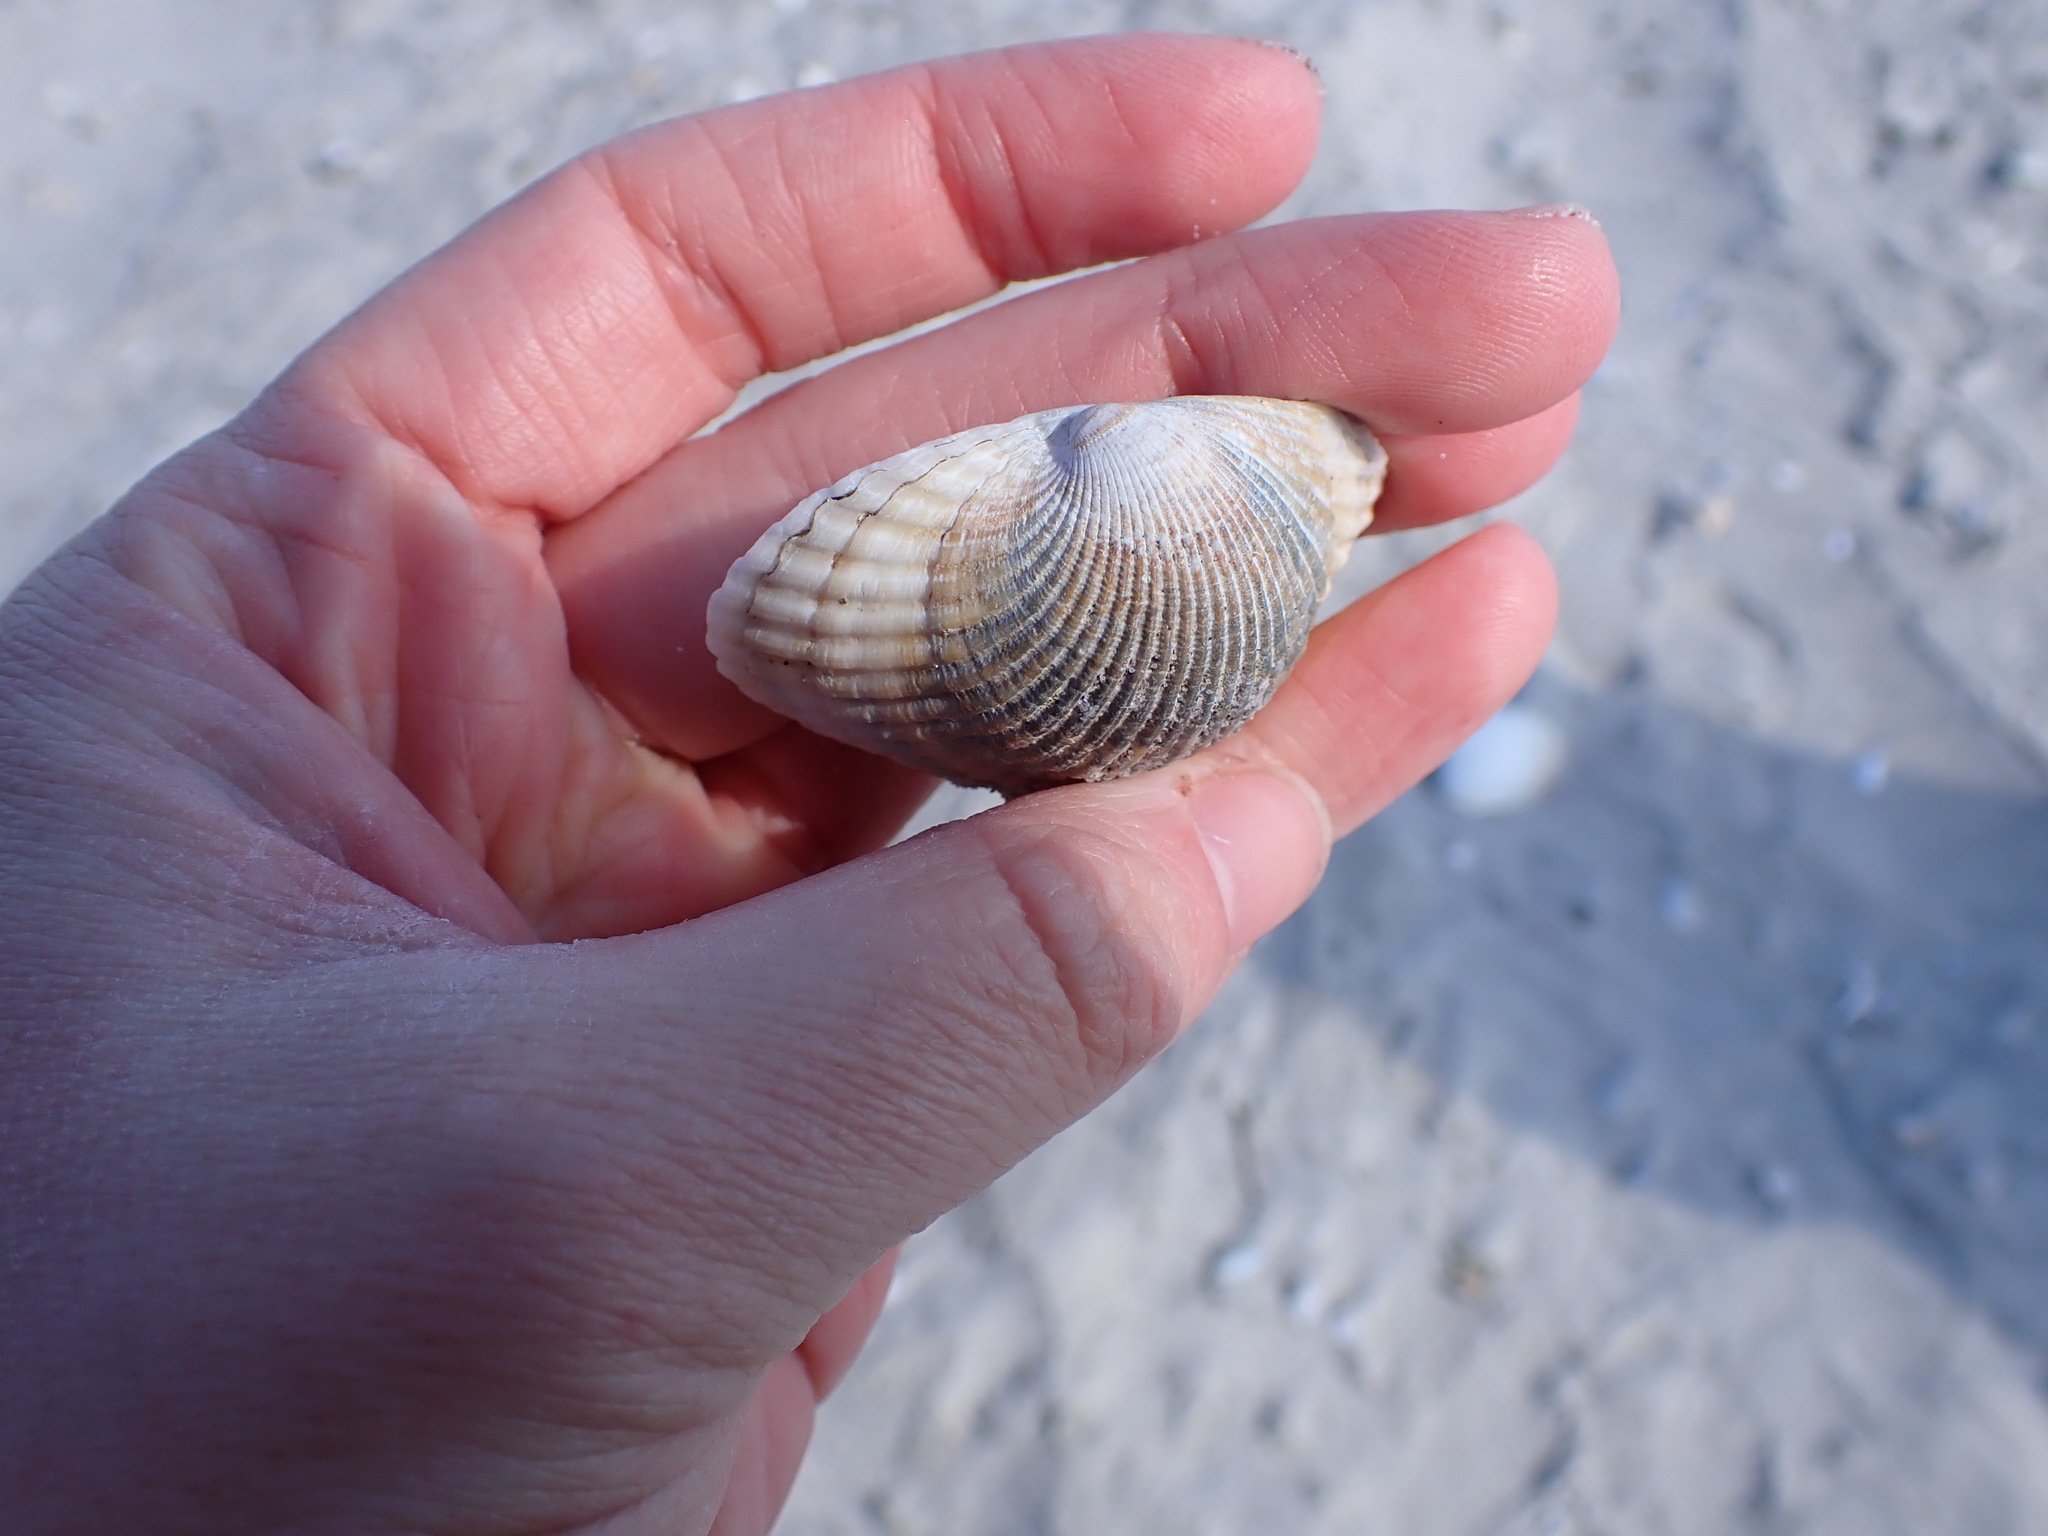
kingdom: Animalia
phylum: Mollusca
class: Bivalvia
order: Arcida
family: Arcidae
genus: Lunarca
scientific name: Lunarca ovalis
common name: Blood ark
